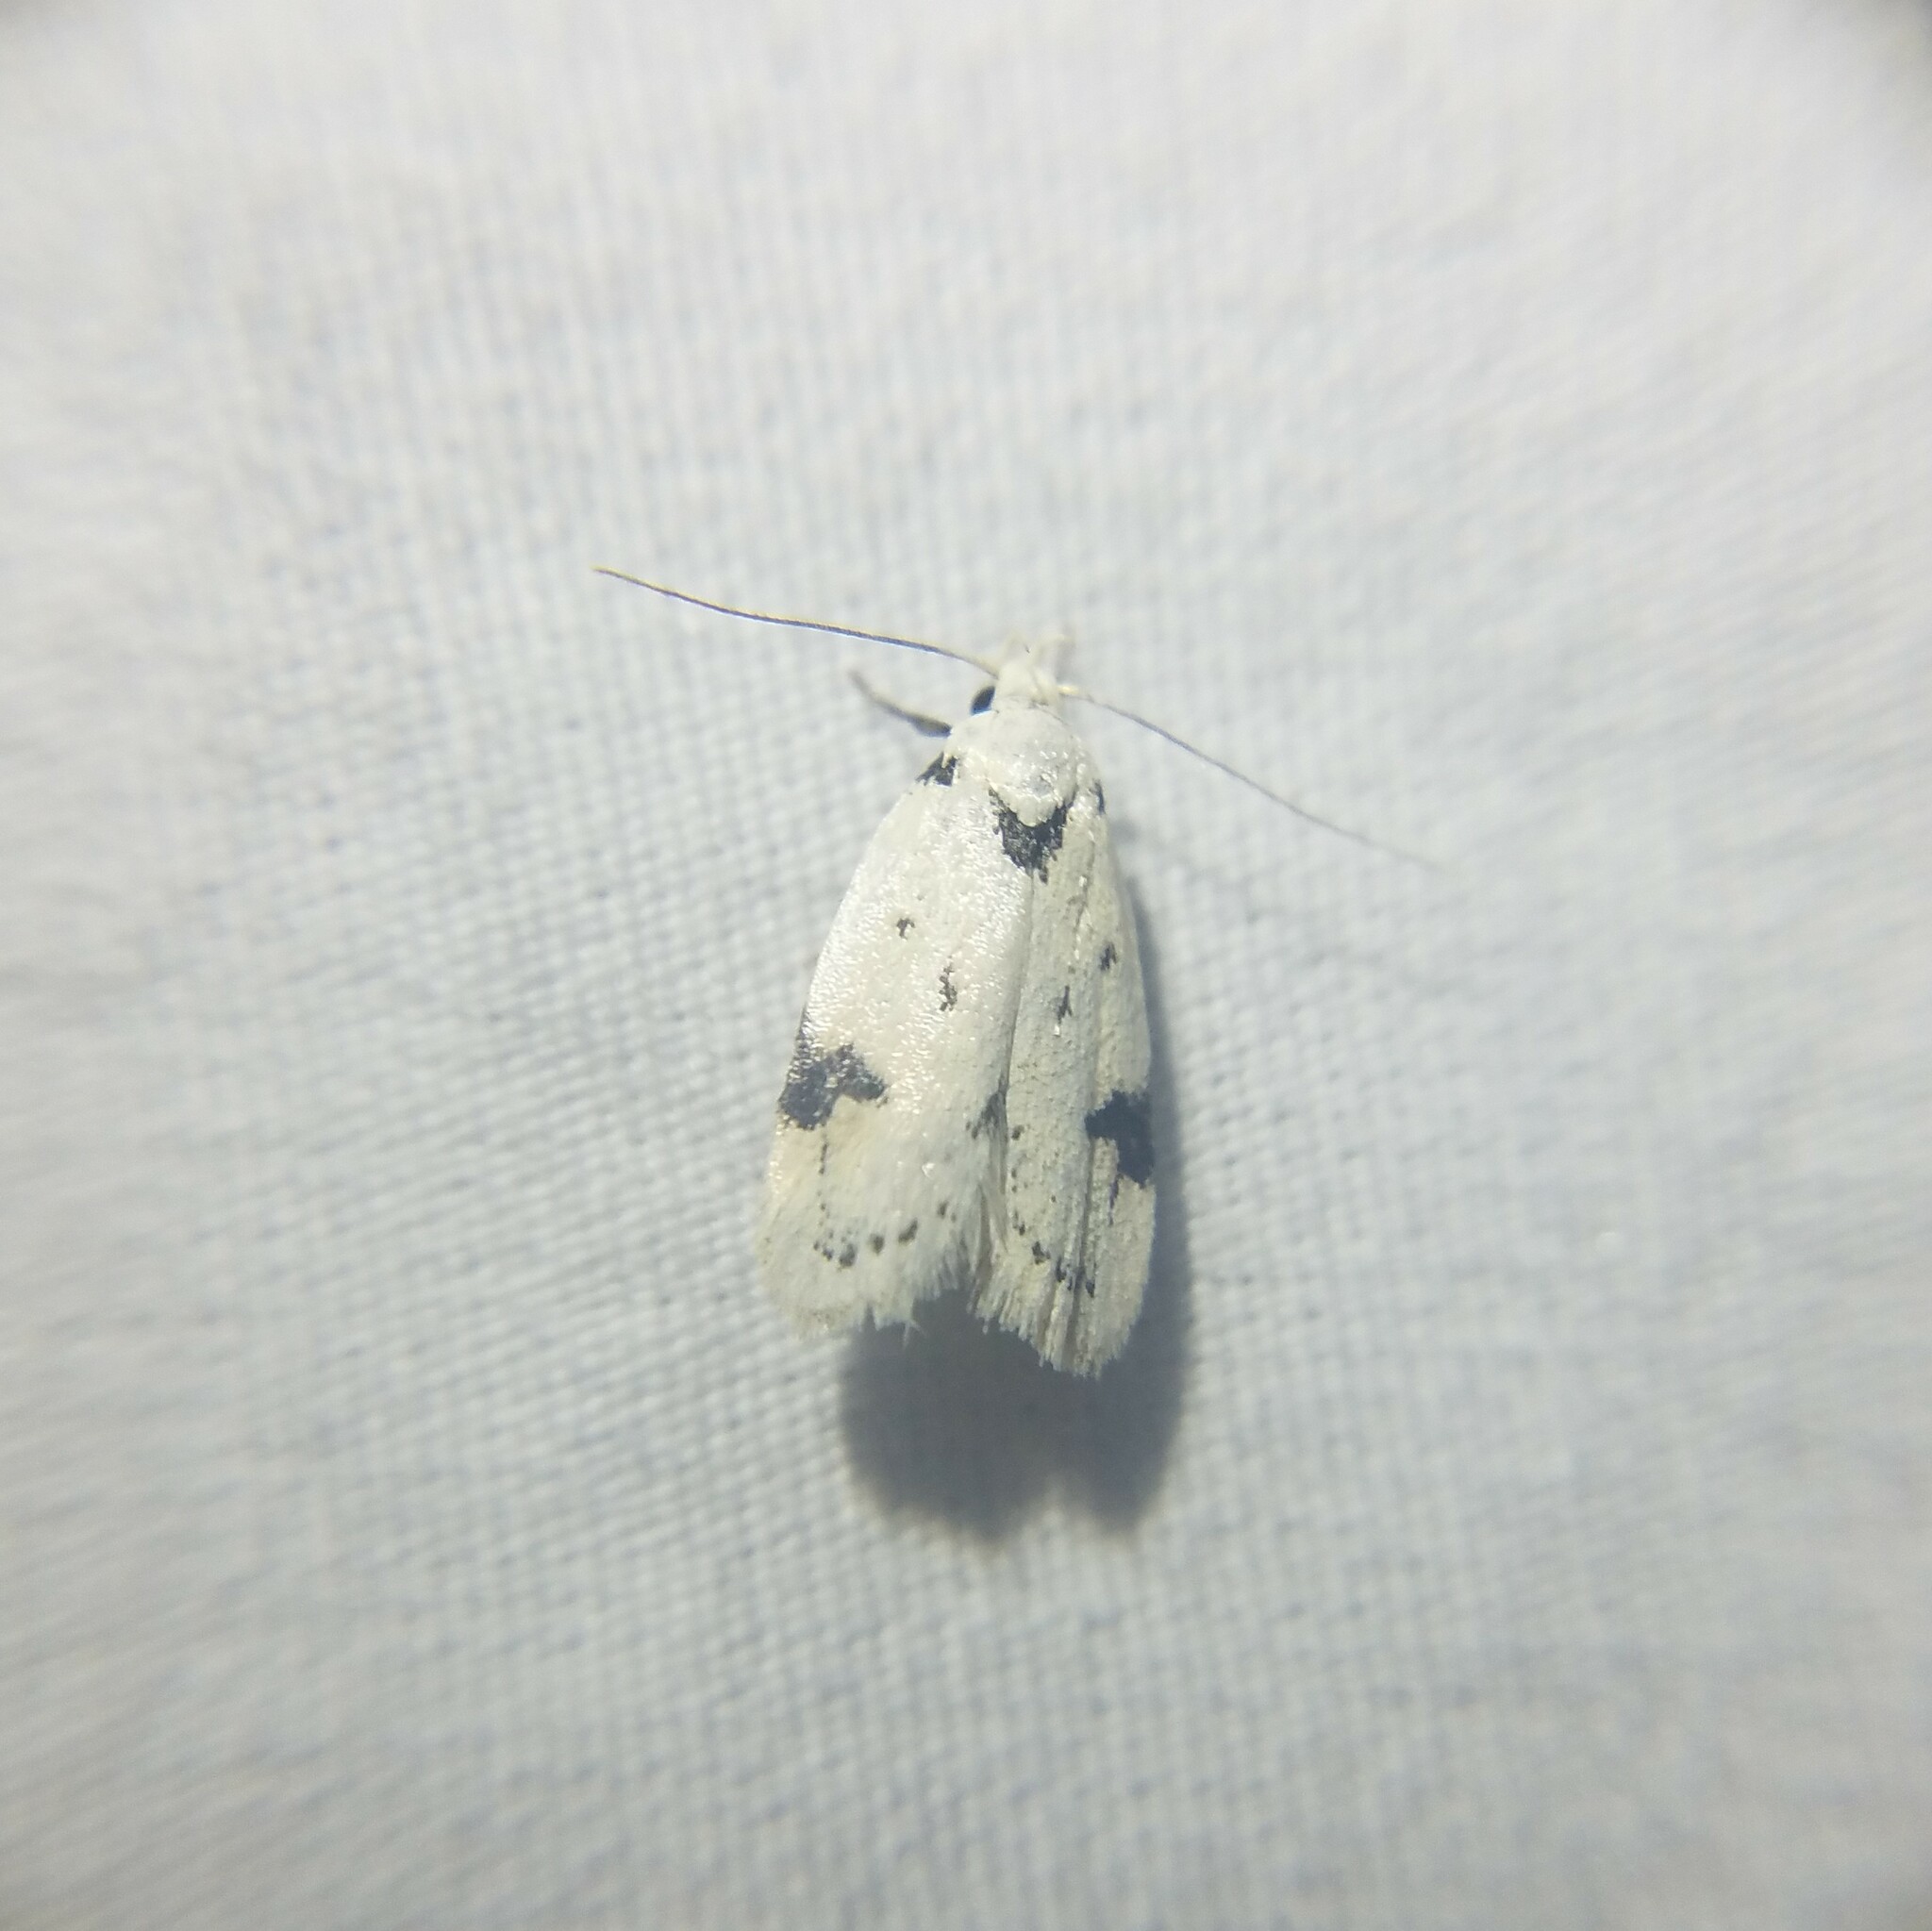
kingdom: Animalia
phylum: Arthropoda
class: Insecta
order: Lepidoptera
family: Oecophoridae
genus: Inga
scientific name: Inga sparsiciliella
